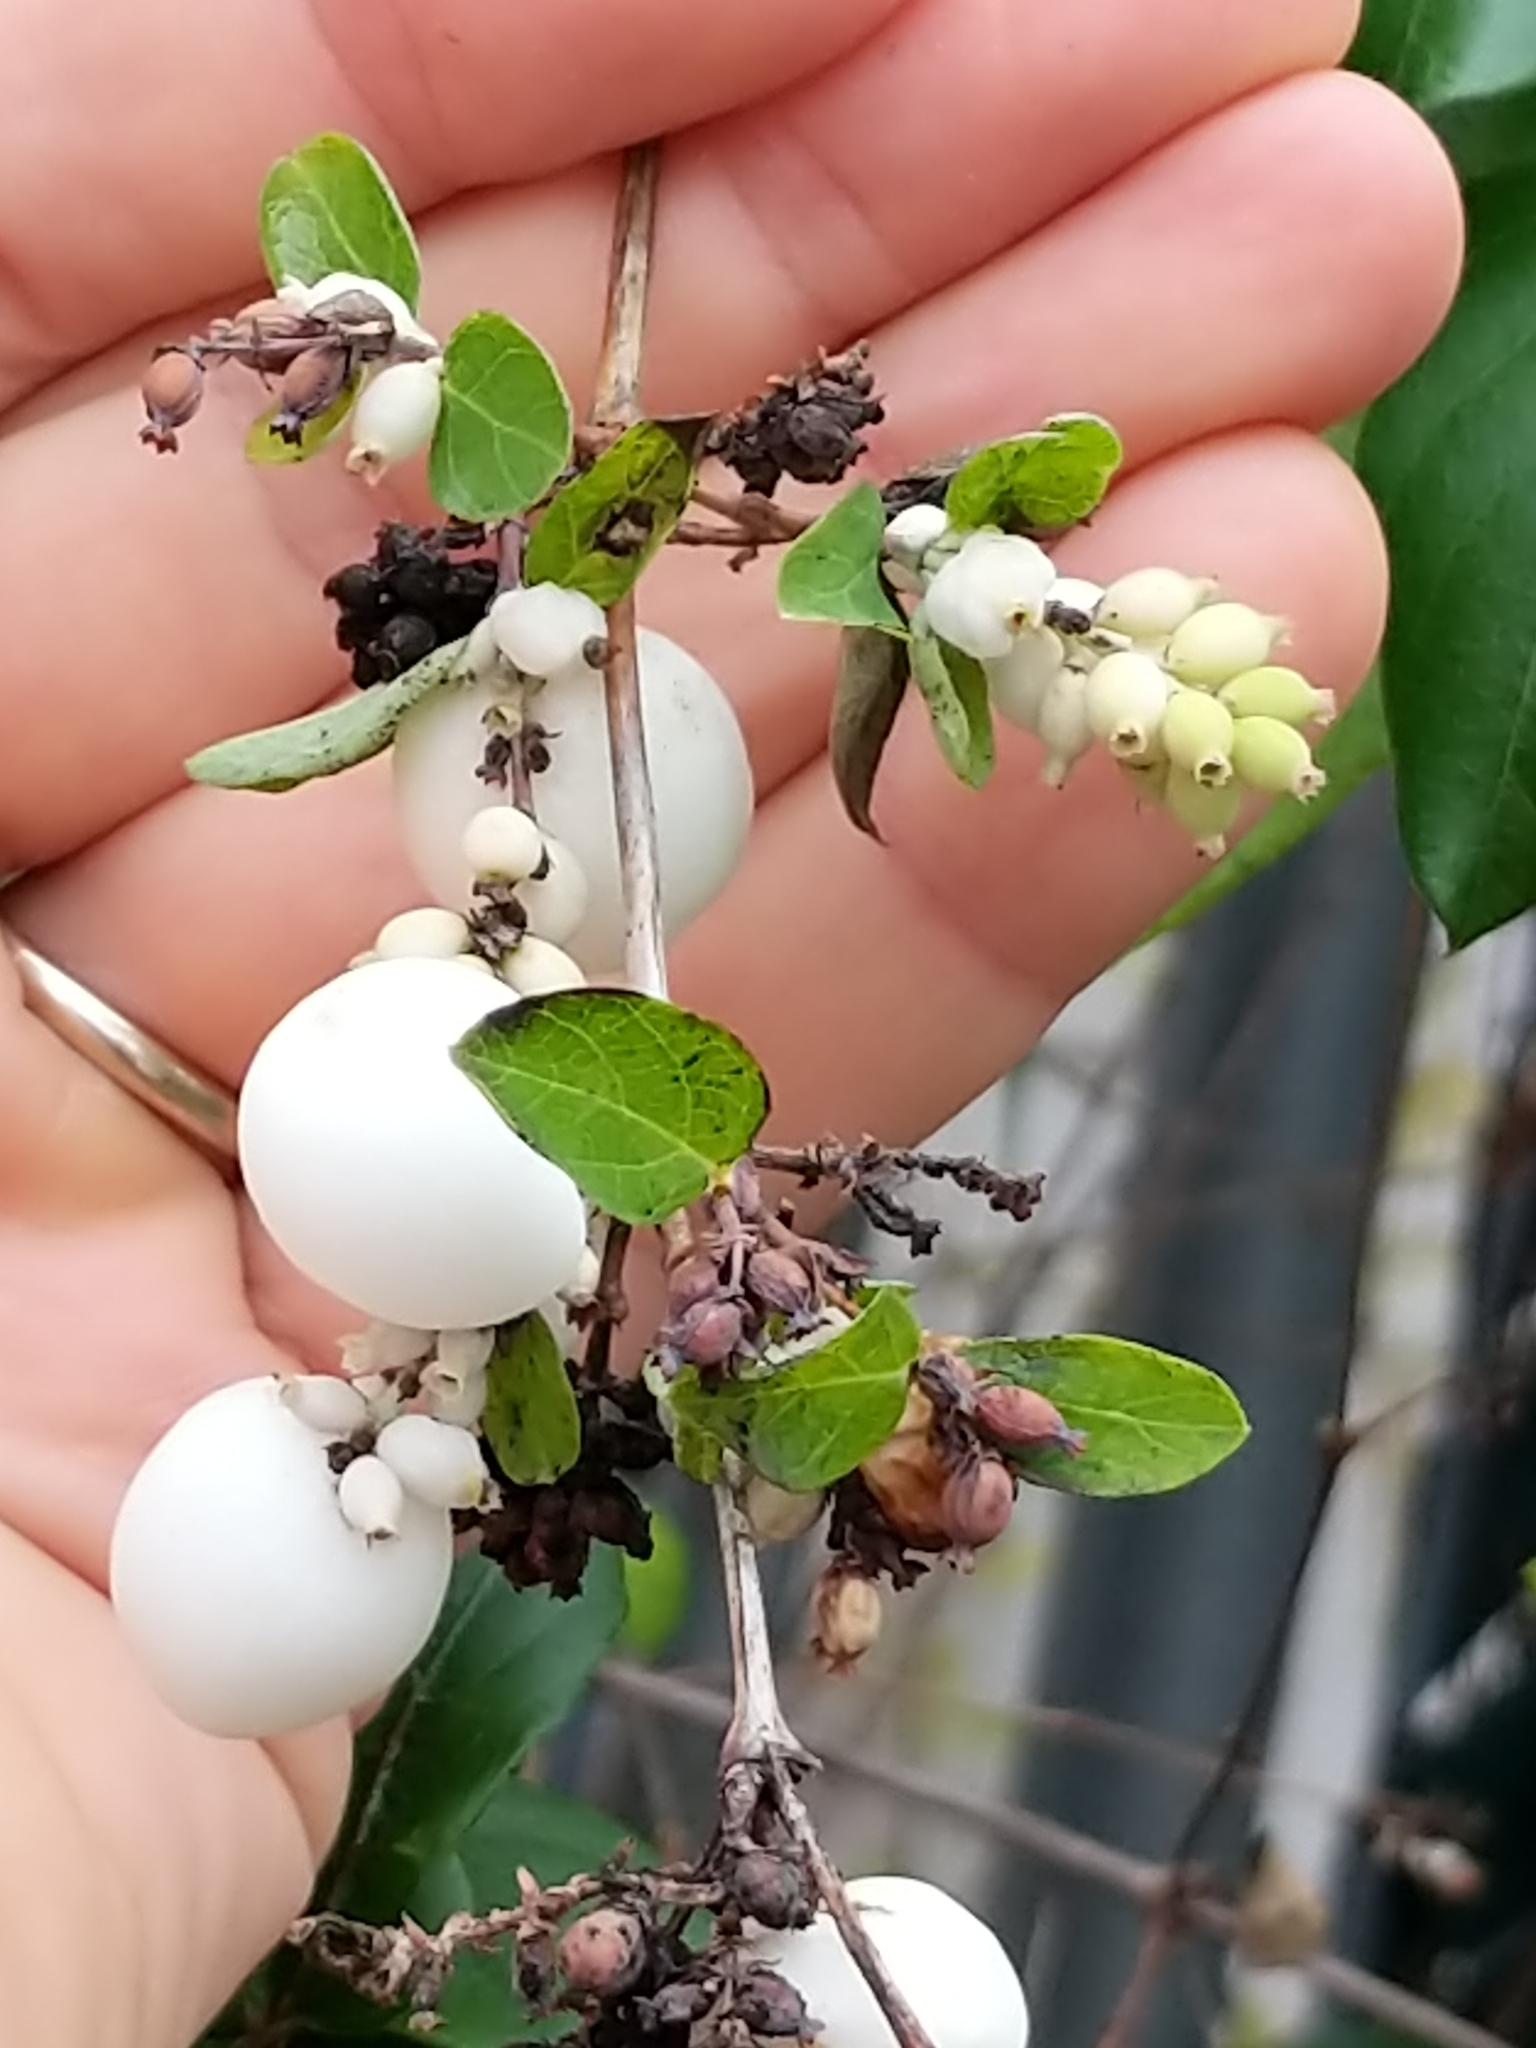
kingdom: Plantae
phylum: Tracheophyta
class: Magnoliopsida
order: Dipsacales
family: Caprifoliaceae
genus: Symphoricarpos
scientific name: Symphoricarpos albus
